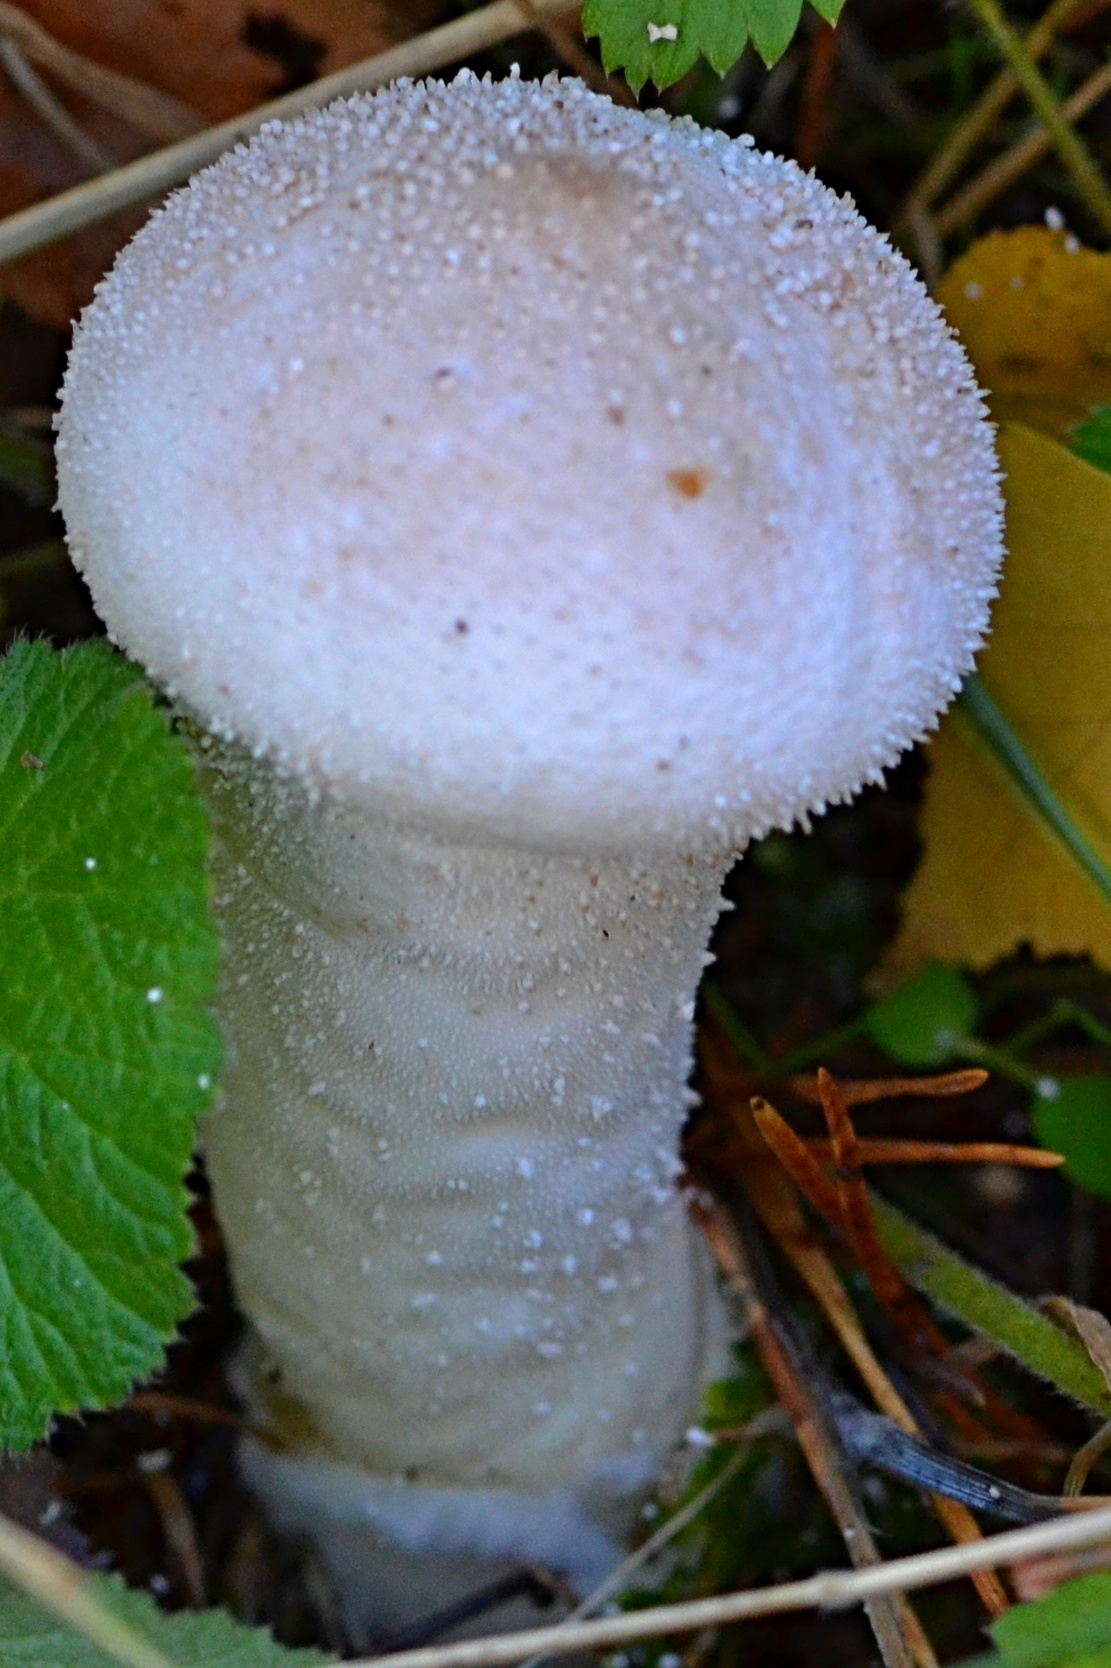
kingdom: Fungi
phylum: Basidiomycota
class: Agaricomycetes
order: Agaricales
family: Lycoperdaceae
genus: Lycoperdon
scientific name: Lycoperdon excipuliforme
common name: Pestle puffball
